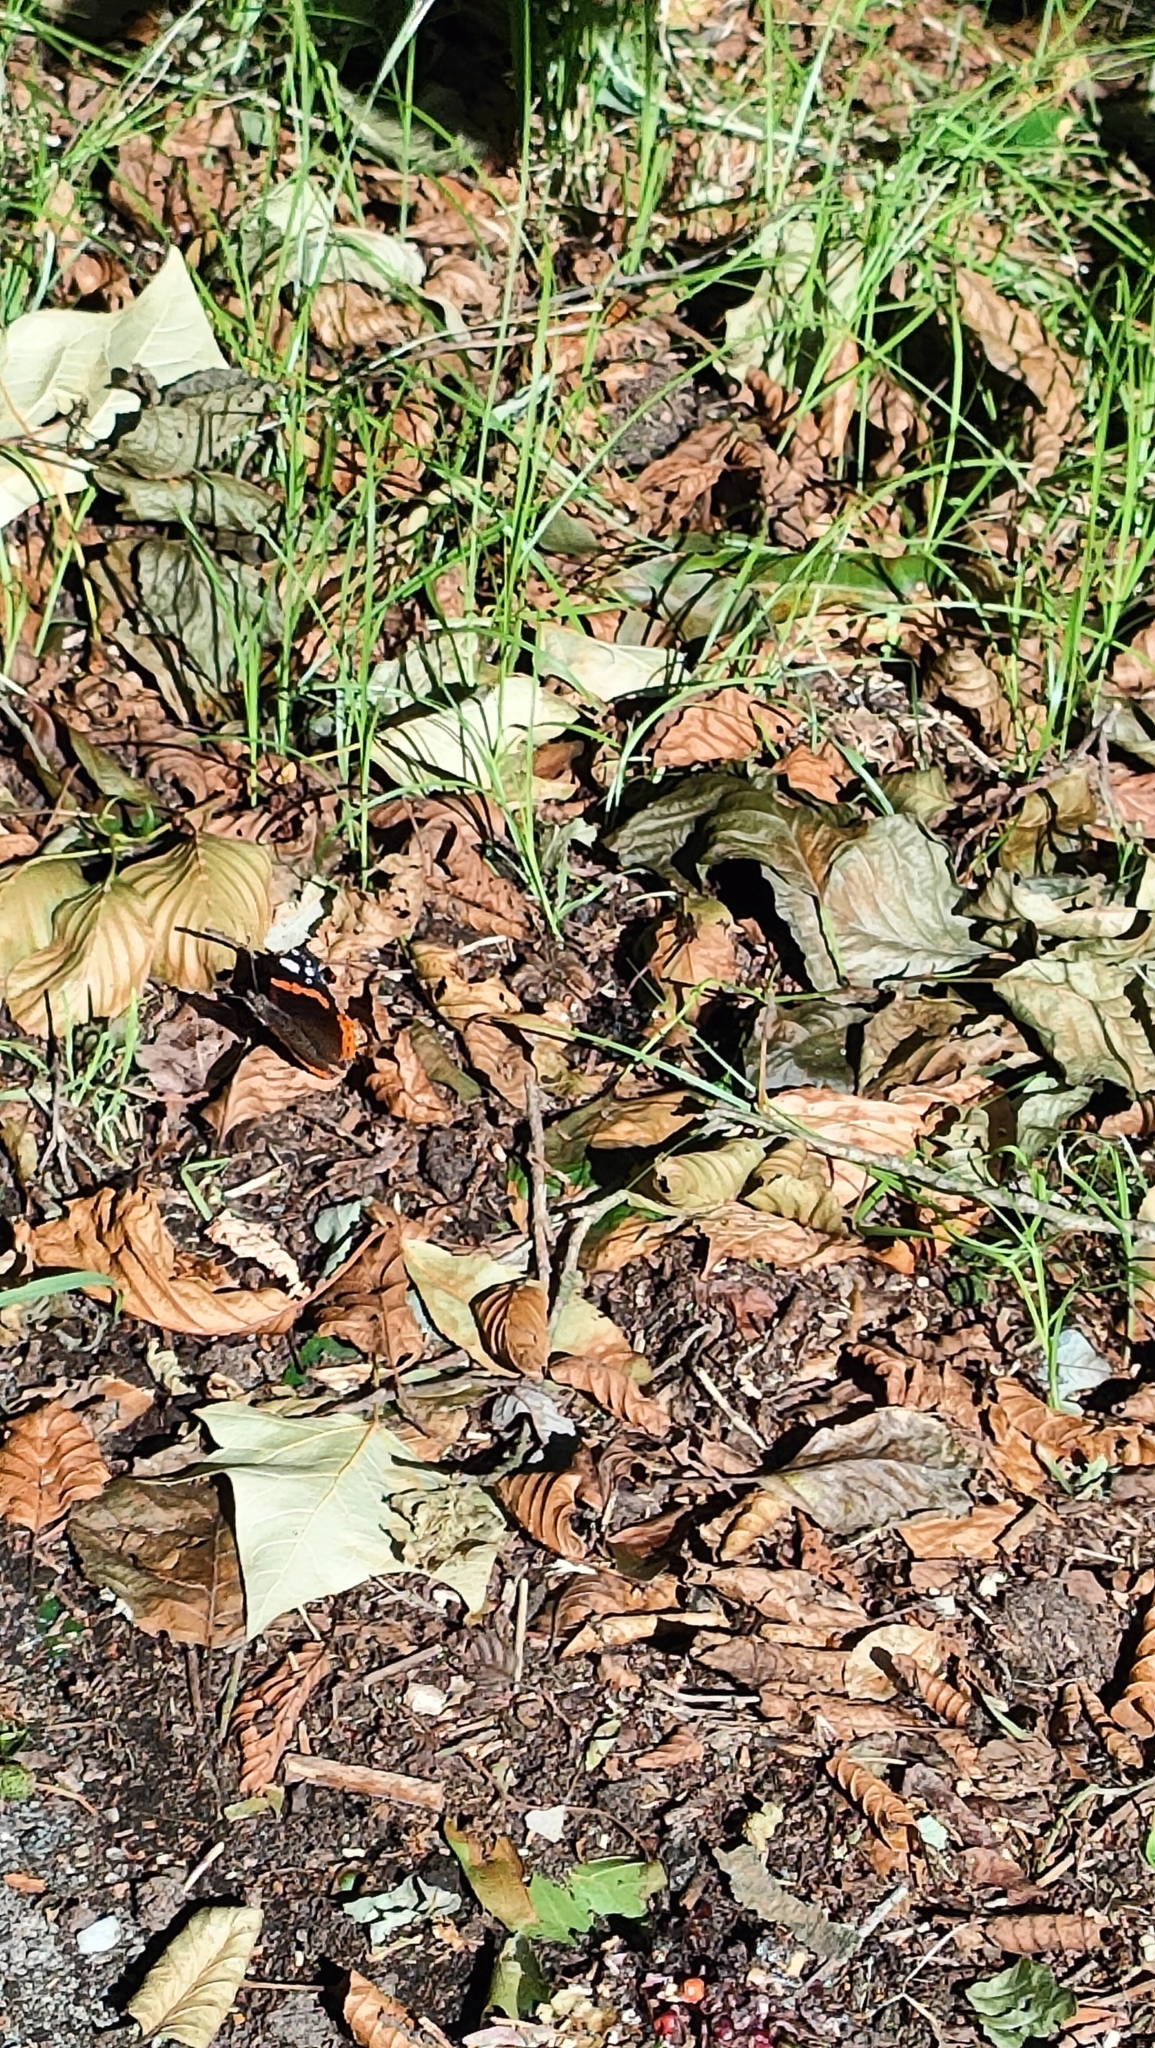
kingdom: Animalia
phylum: Arthropoda
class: Insecta
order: Lepidoptera
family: Nymphalidae
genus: Vanessa
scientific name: Vanessa atalanta
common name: Red admiral
